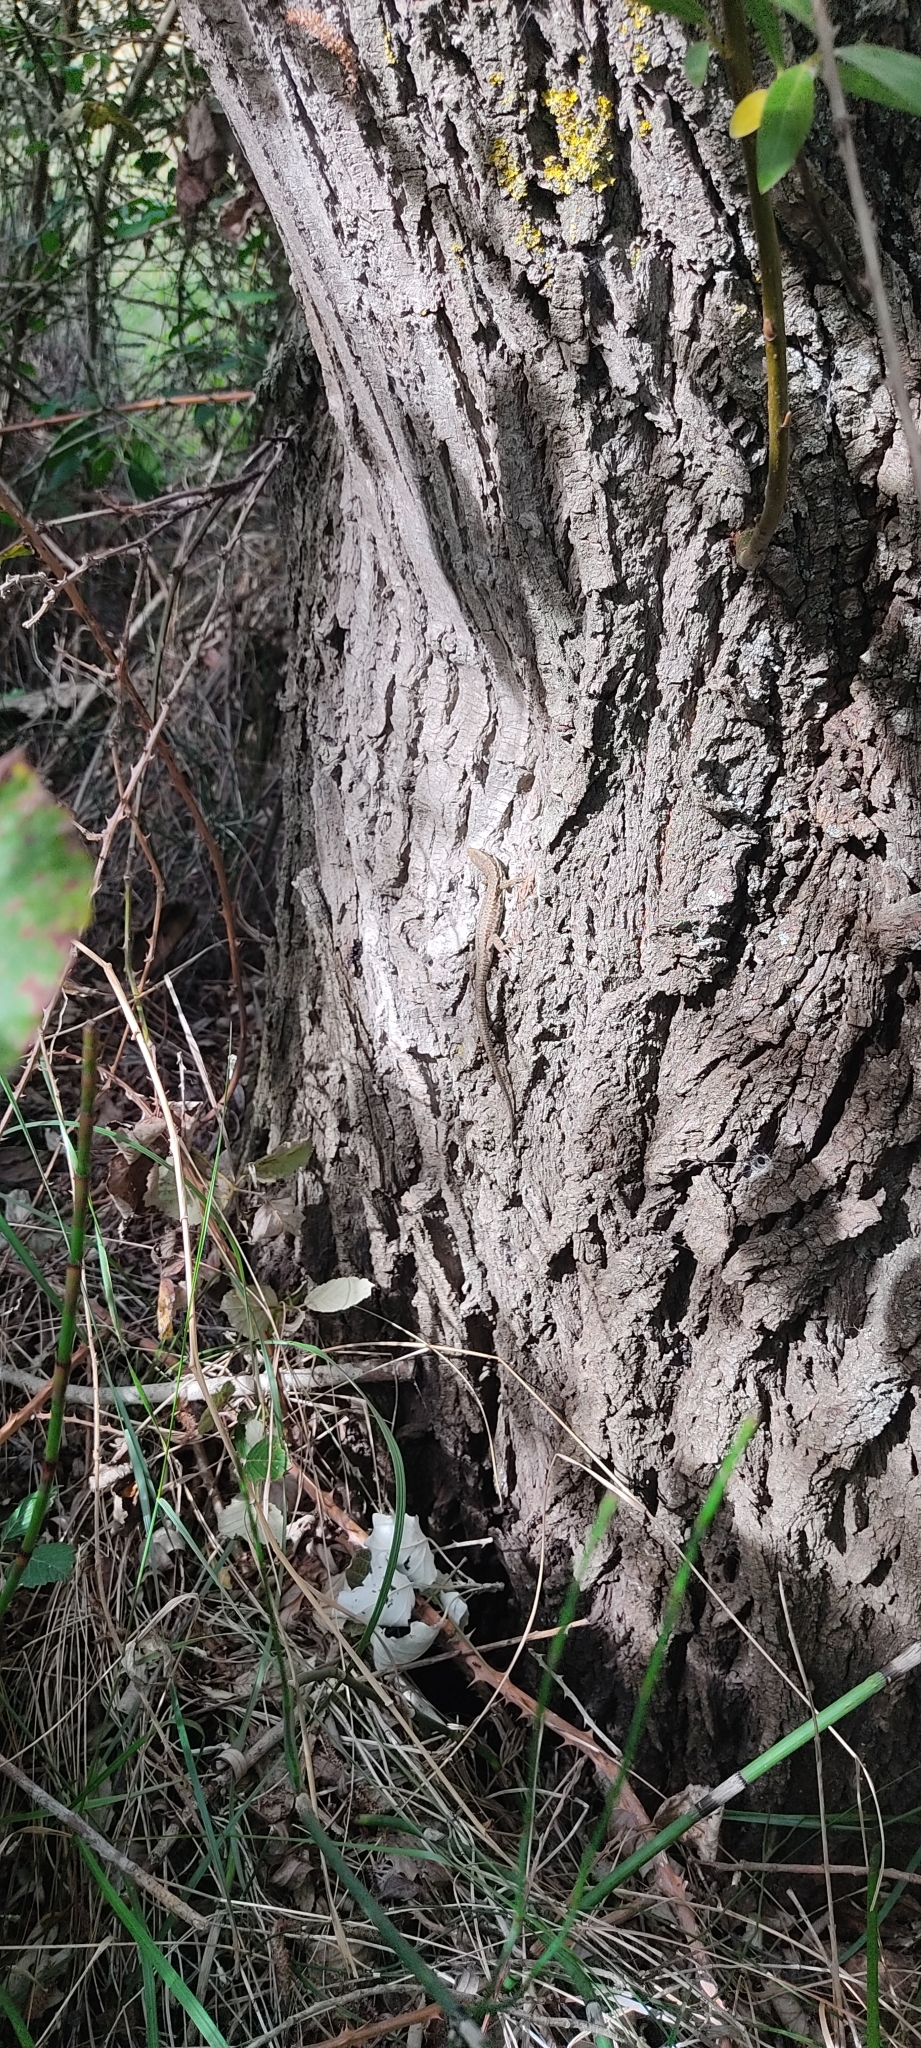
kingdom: Animalia
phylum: Chordata
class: Squamata
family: Lacertidae
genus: Podarcis
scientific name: Podarcis muralis
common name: Common wall lizard
